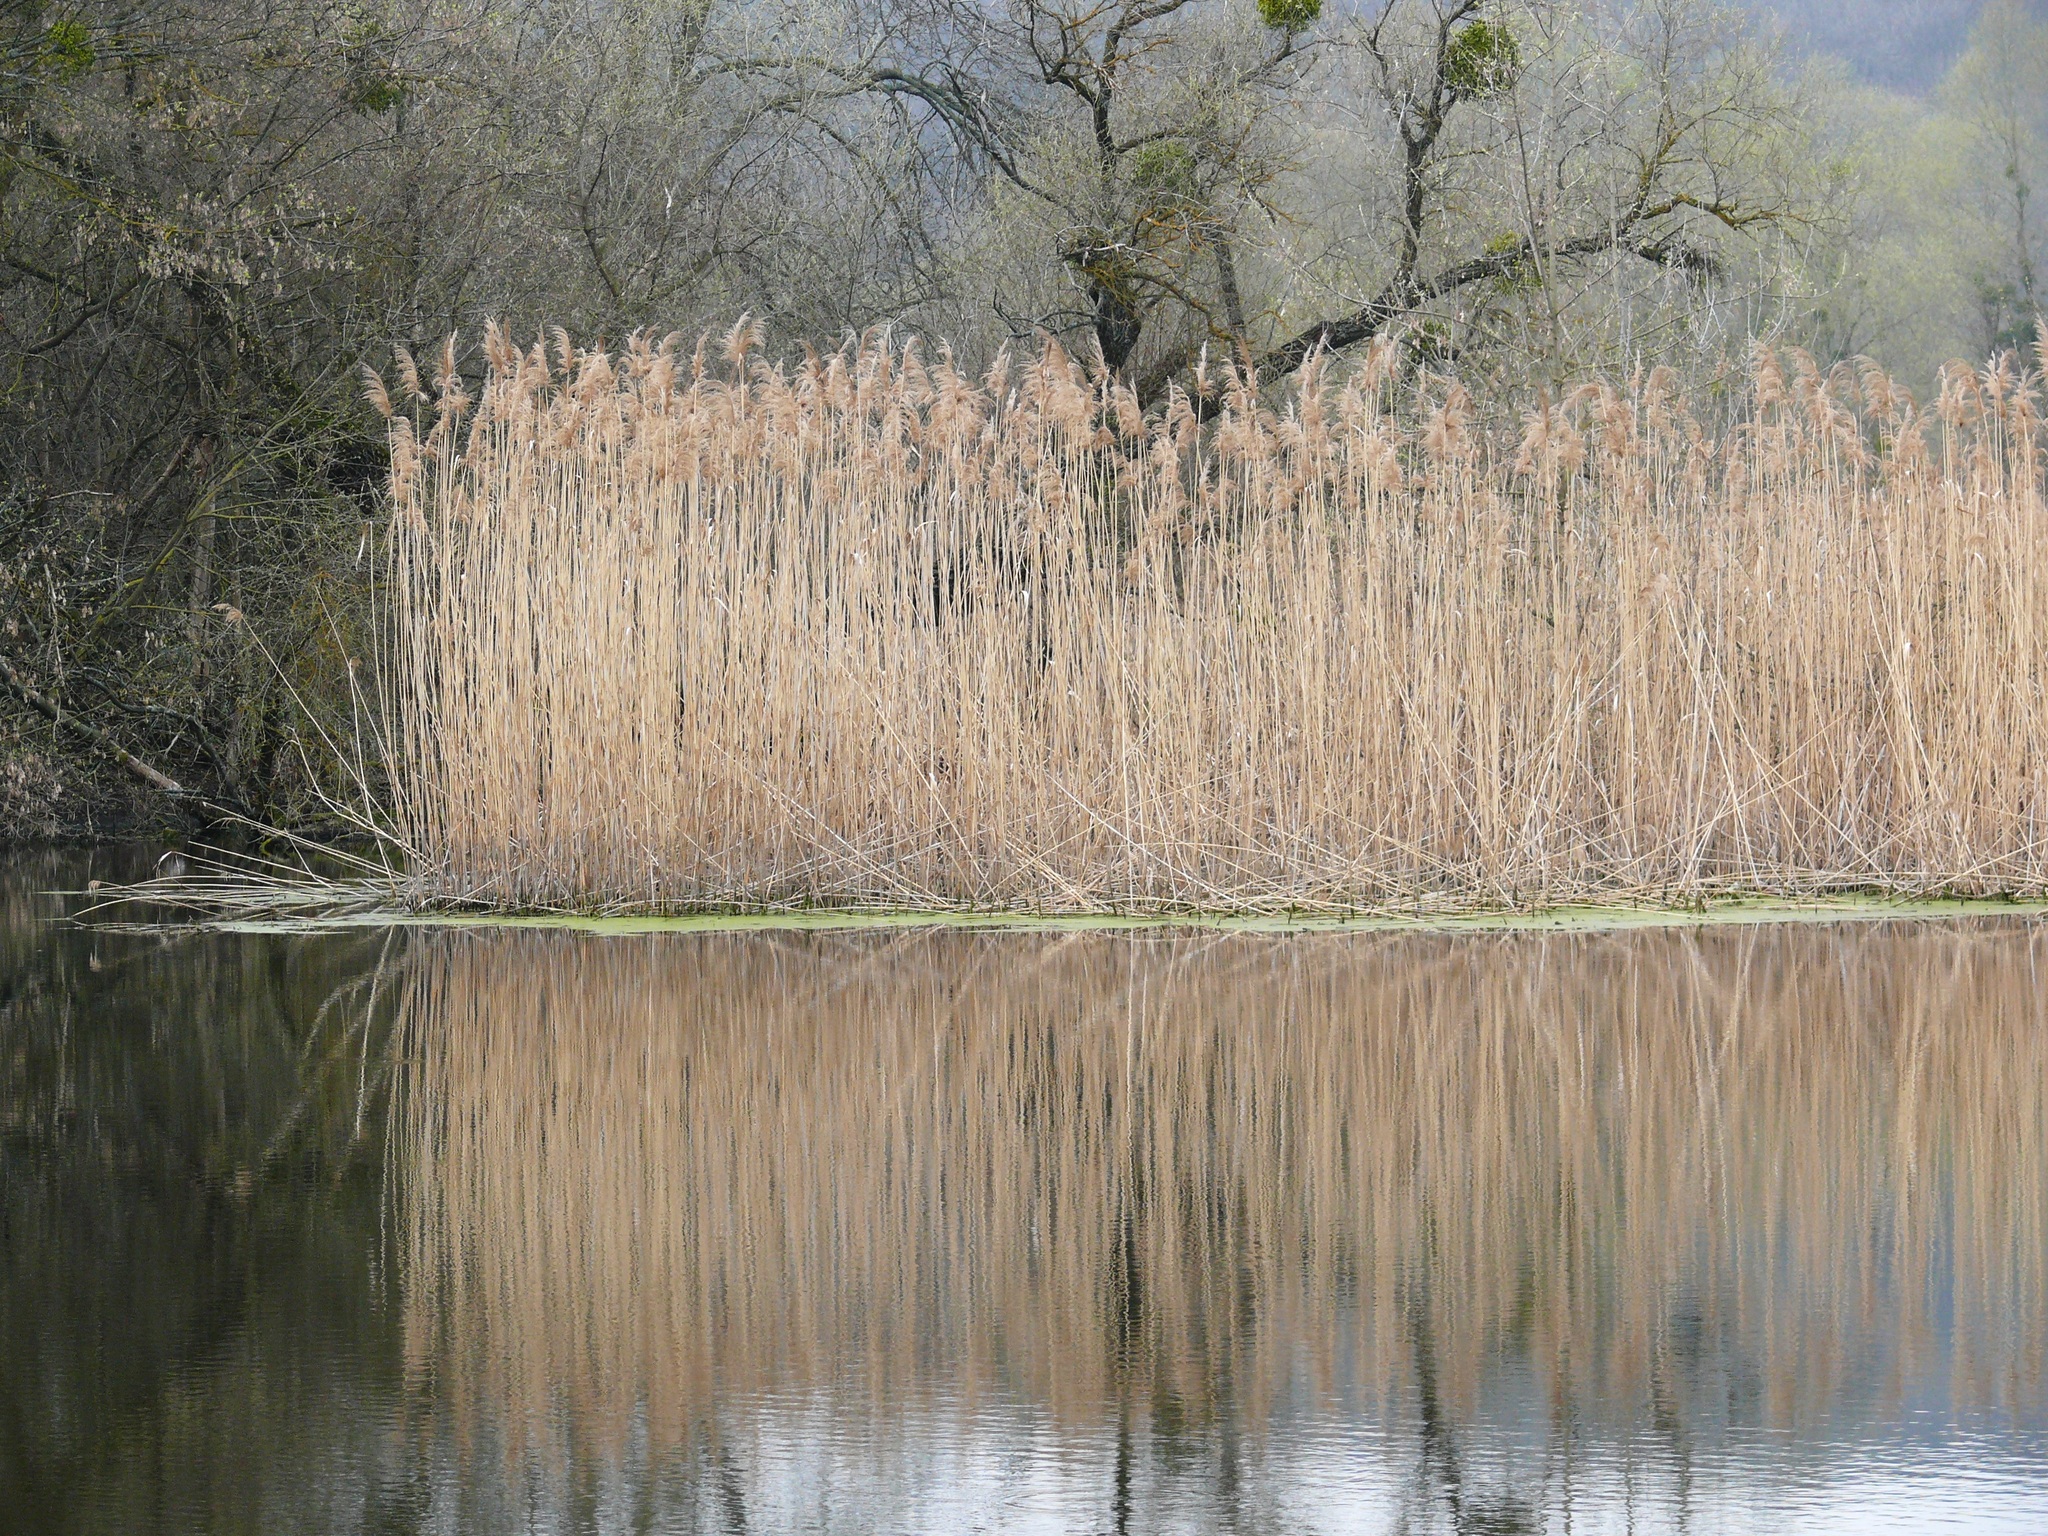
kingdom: Plantae
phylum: Tracheophyta
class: Liliopsida
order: Poales
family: Poaceae
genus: Phragmites
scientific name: Phragmites australis
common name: Common reed
